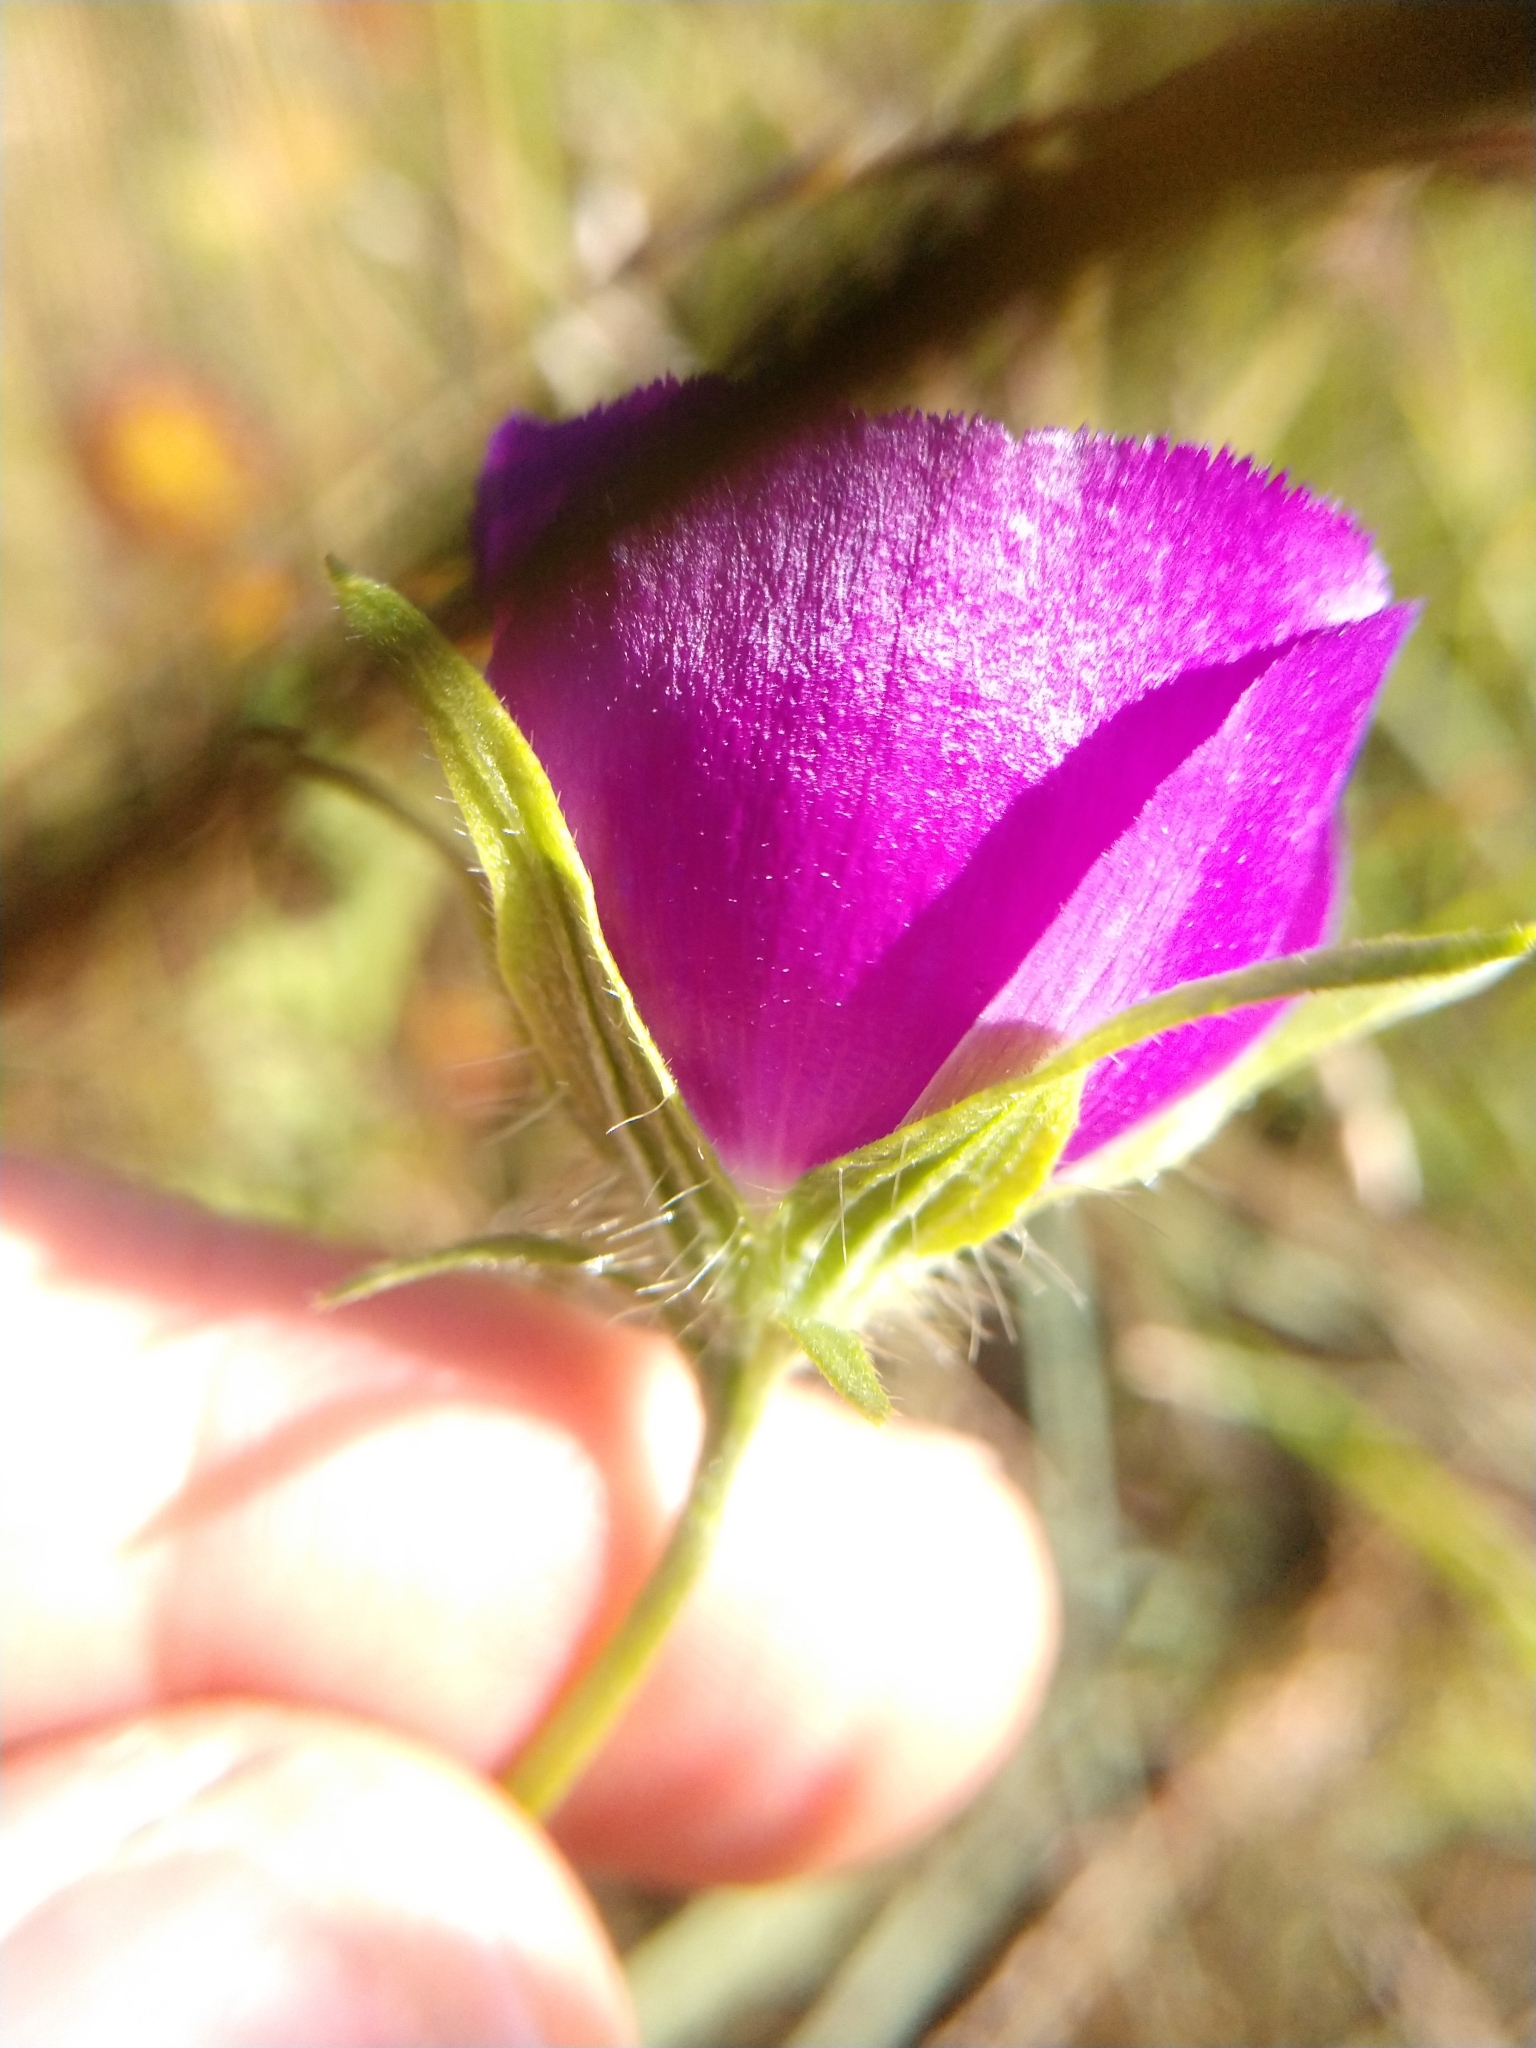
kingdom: Plantae
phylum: Tracheophyta
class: Magnoliopsida
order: Malvales
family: Malvaceae
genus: Callirhoe
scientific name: Callirhoe involucrata
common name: Purple poppy-mallow
